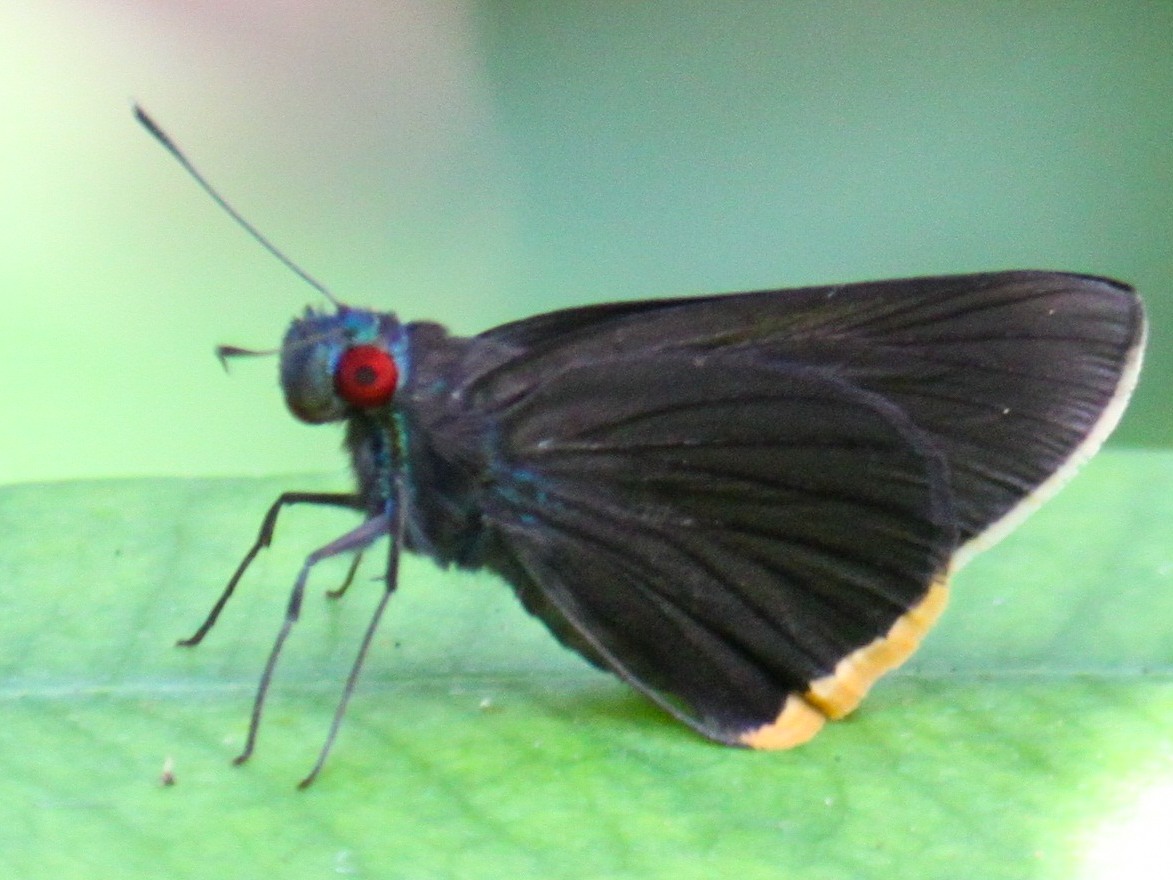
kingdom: Animalia
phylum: Arthropoda
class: Insecta
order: Lepidoptera
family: Hesperiidae
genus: Matapa
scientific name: Matapa sasivarna
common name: Black-veined redeye
